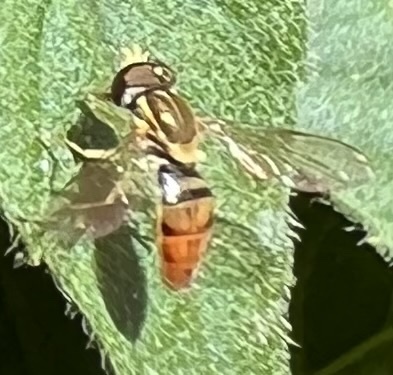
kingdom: Animalia
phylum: Arthropoda
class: Insecta
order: Diptera
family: Syrphidae
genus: Toxomerus
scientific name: Toxomerus marginatus
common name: Syrphid fly
